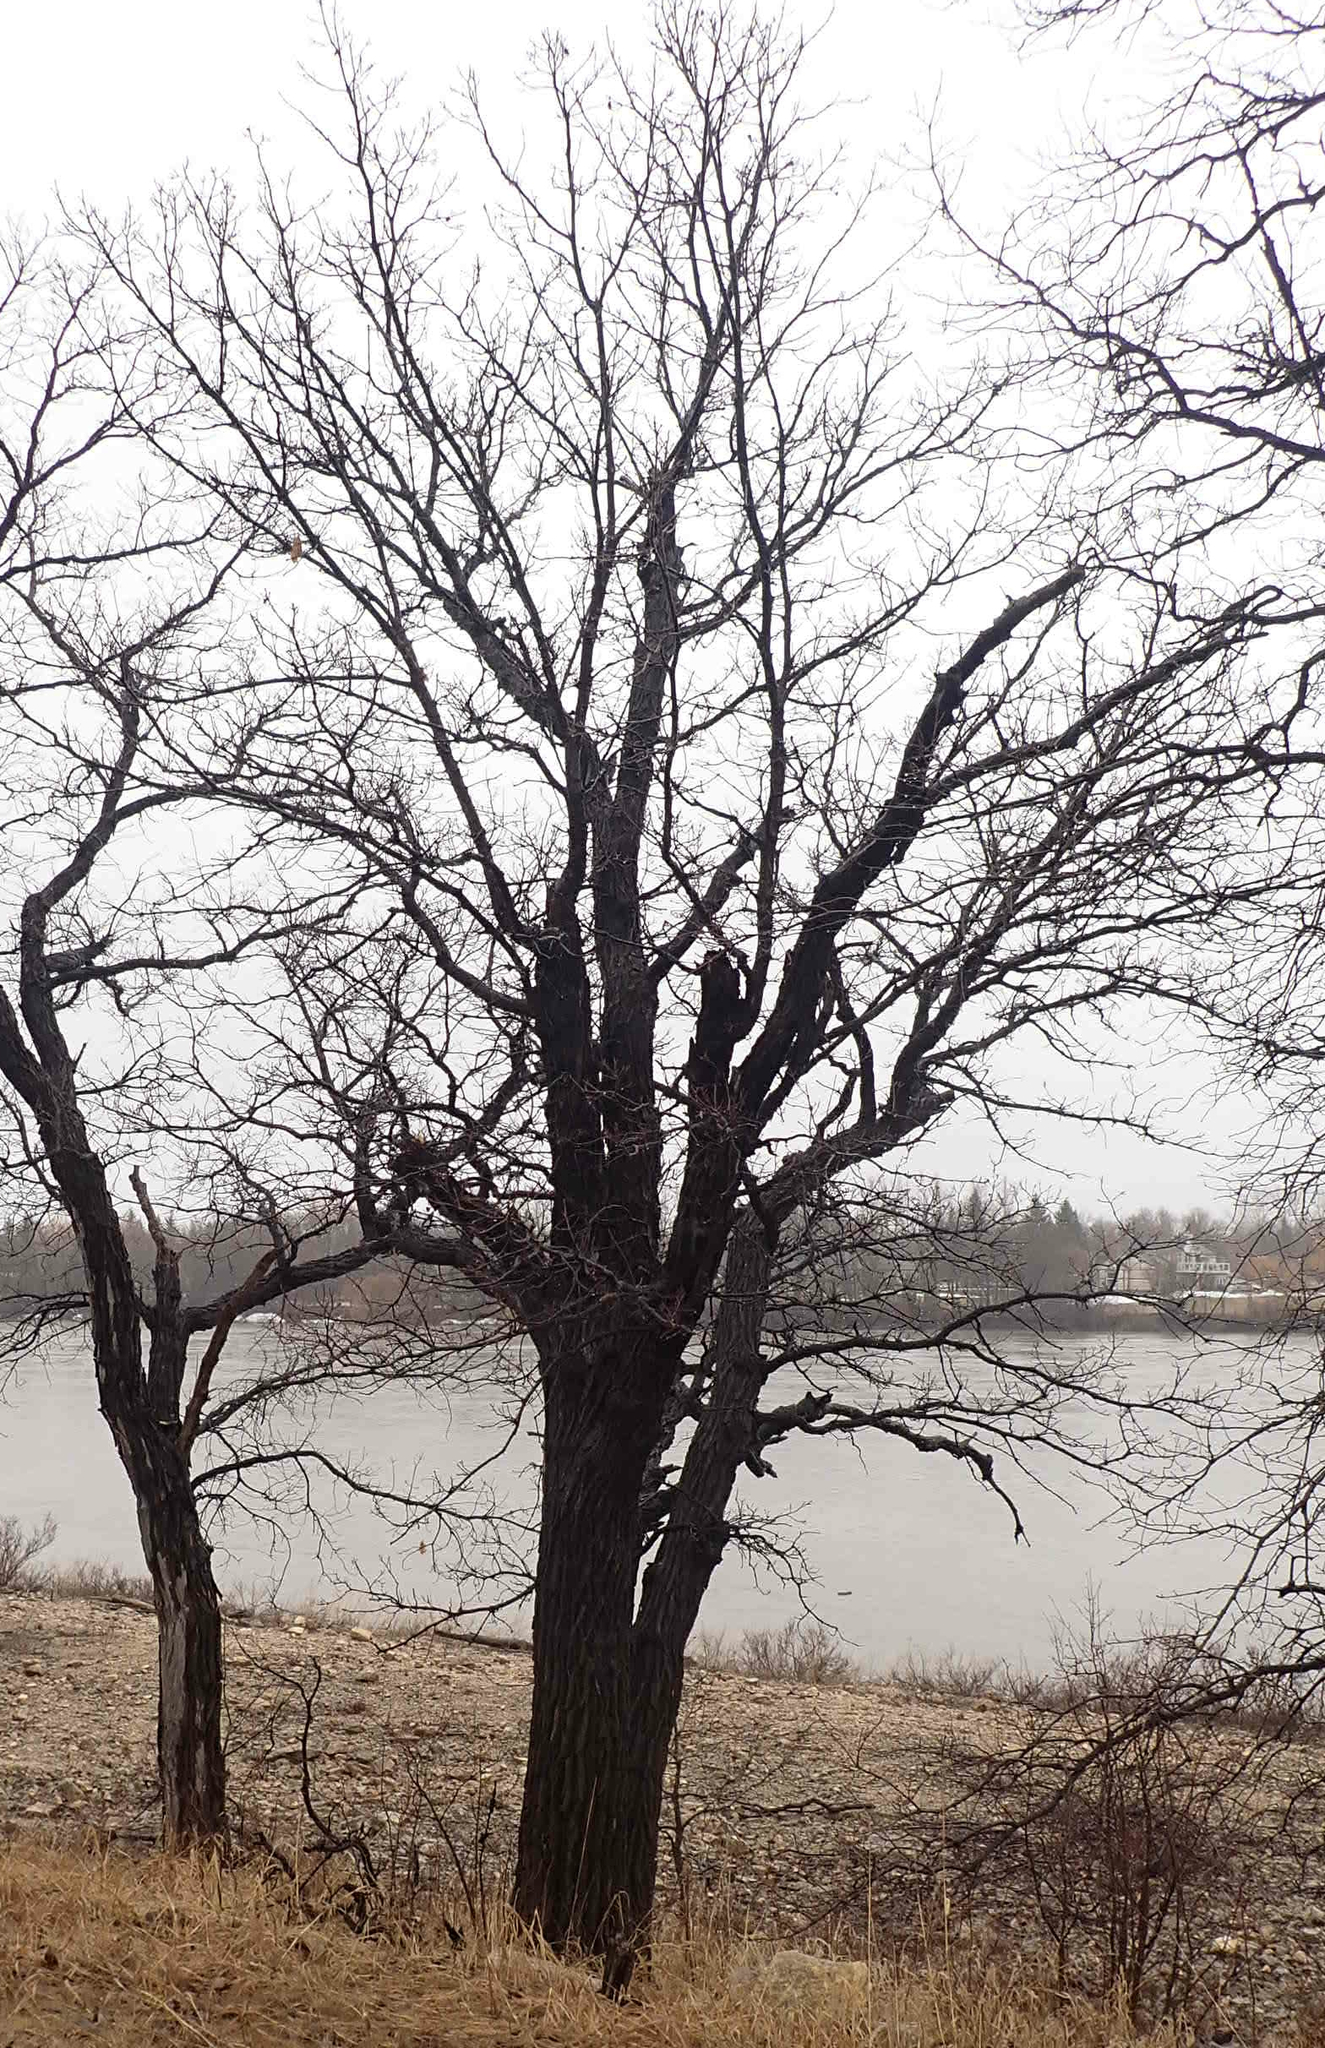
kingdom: Plantae
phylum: Tracheophyta
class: Magnoliopsida
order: Fagales
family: Fagaceae
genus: Quercus
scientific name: Quercus macrocarpa
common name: Bur oak
